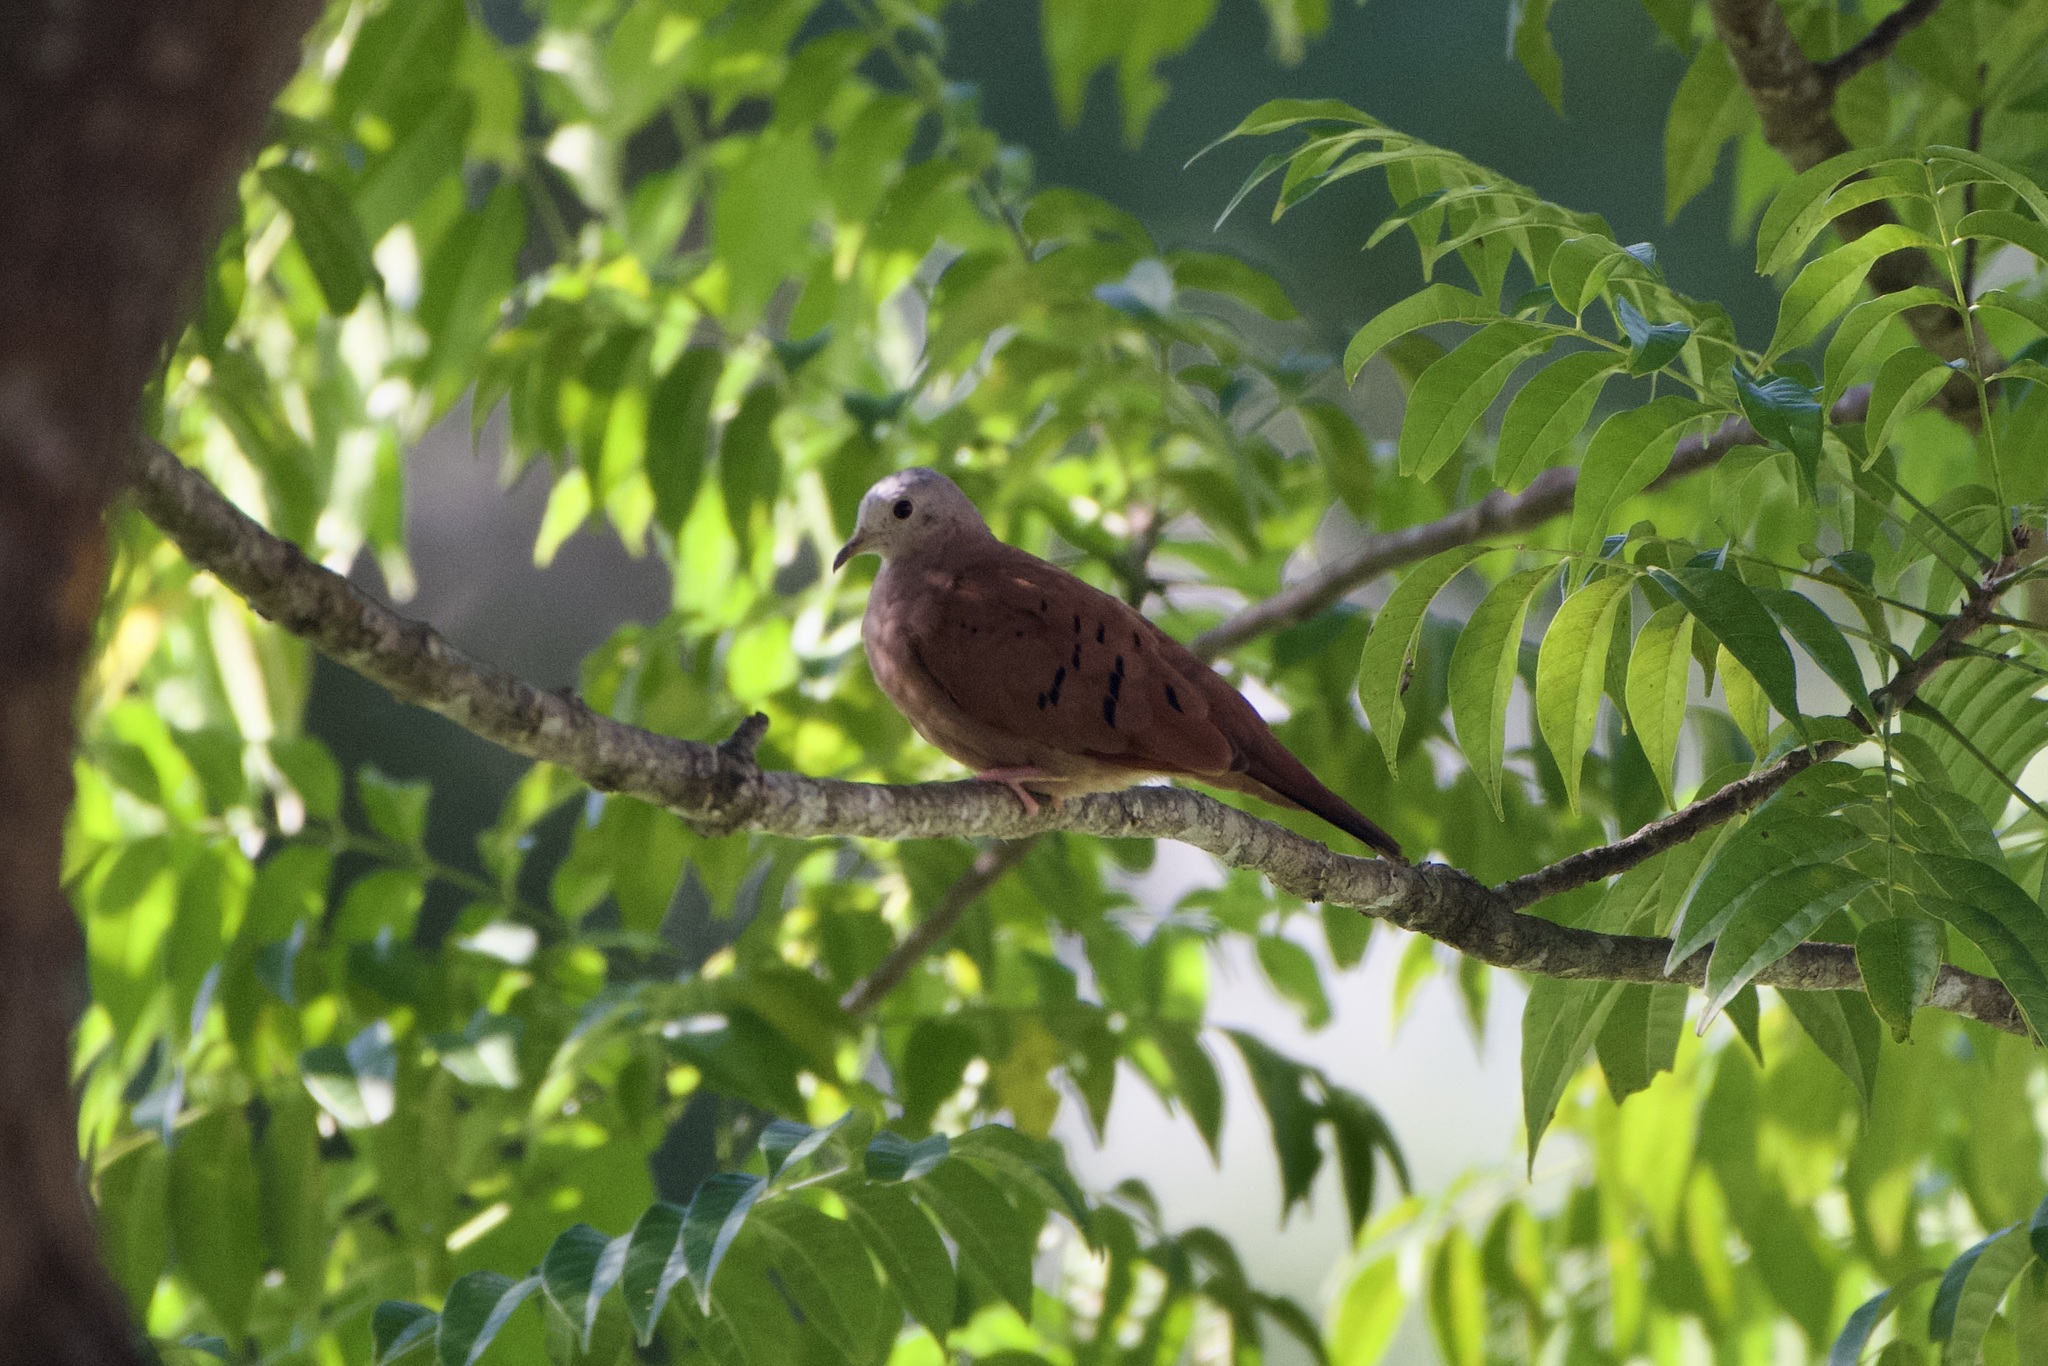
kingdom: Animalia
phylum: Chordata
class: Aves
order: Columbiformes
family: Columbidae
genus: Columbina
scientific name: Columbina talpacoti
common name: Ruddy ground dove
